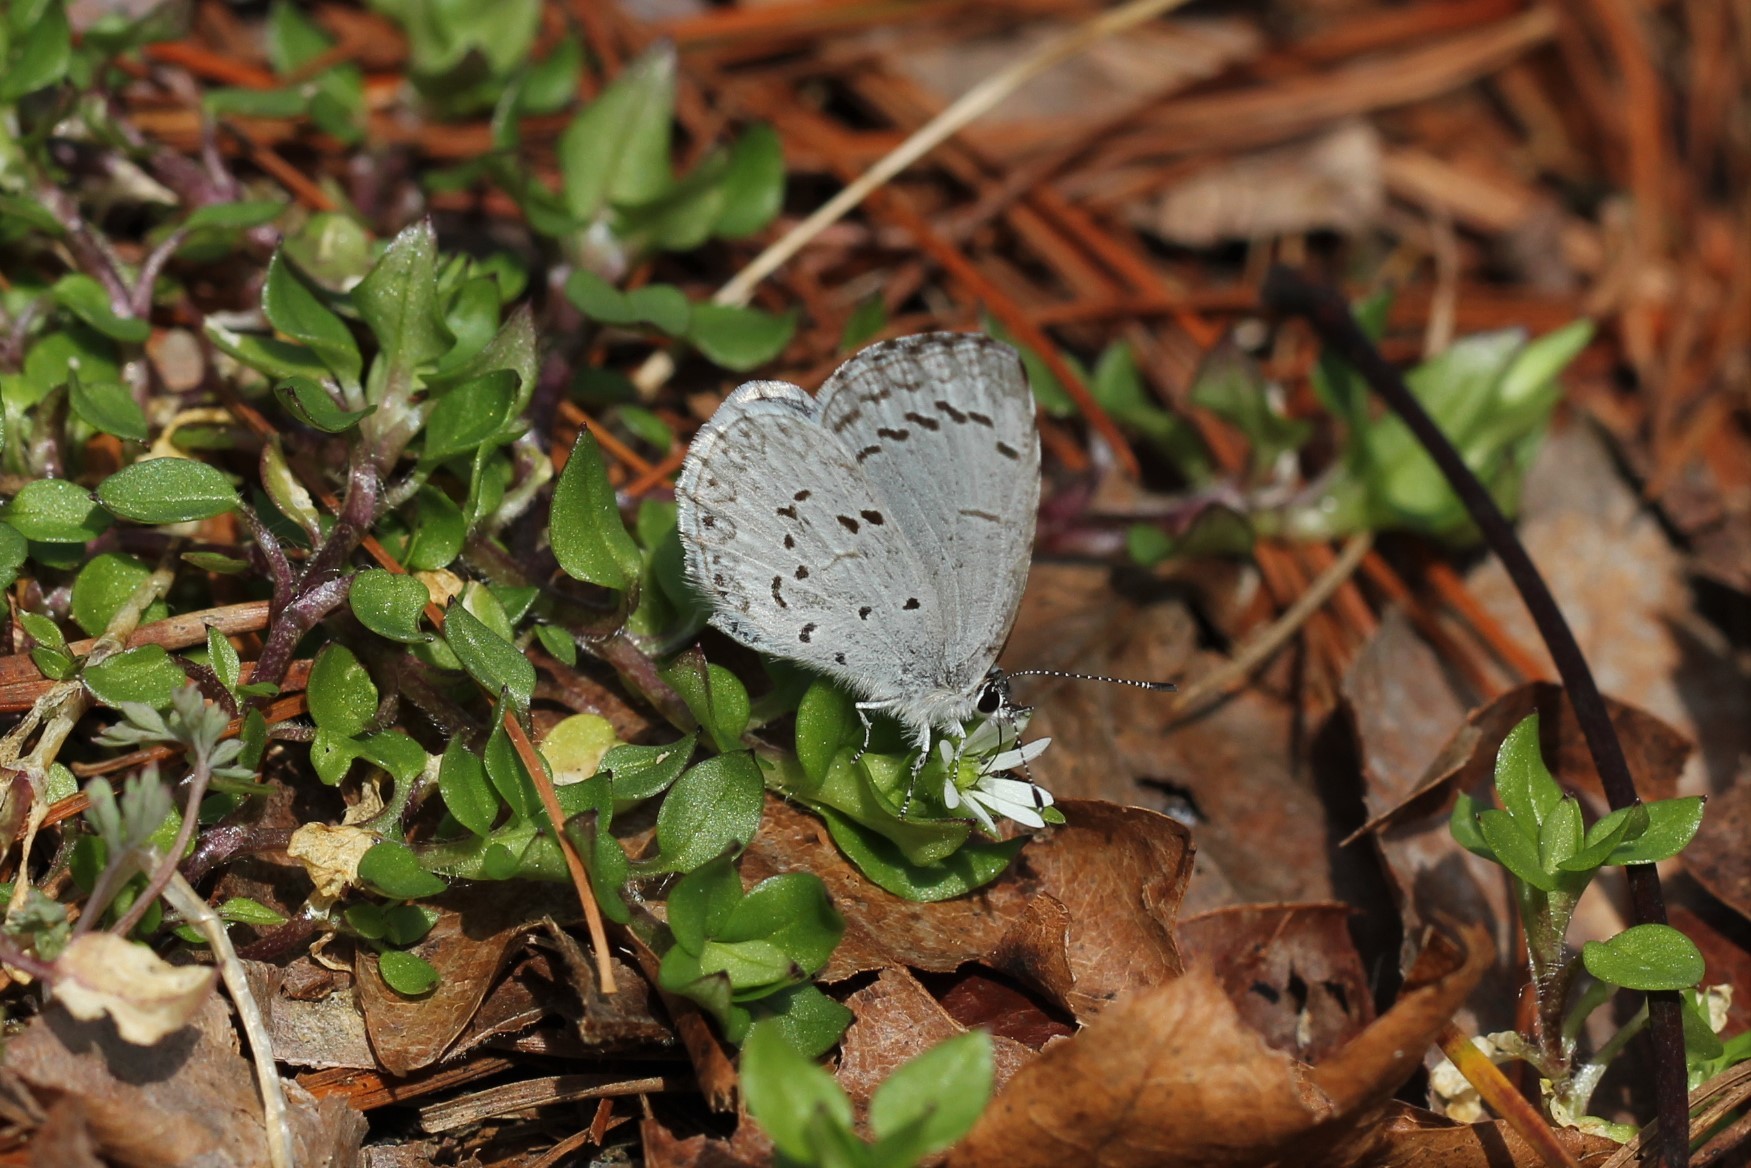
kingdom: Animalia
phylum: Arthropoda
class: Insecta
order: Lepidoptera
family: Lycaenidae
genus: Cyaniris
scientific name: Cyaniris neglecta
